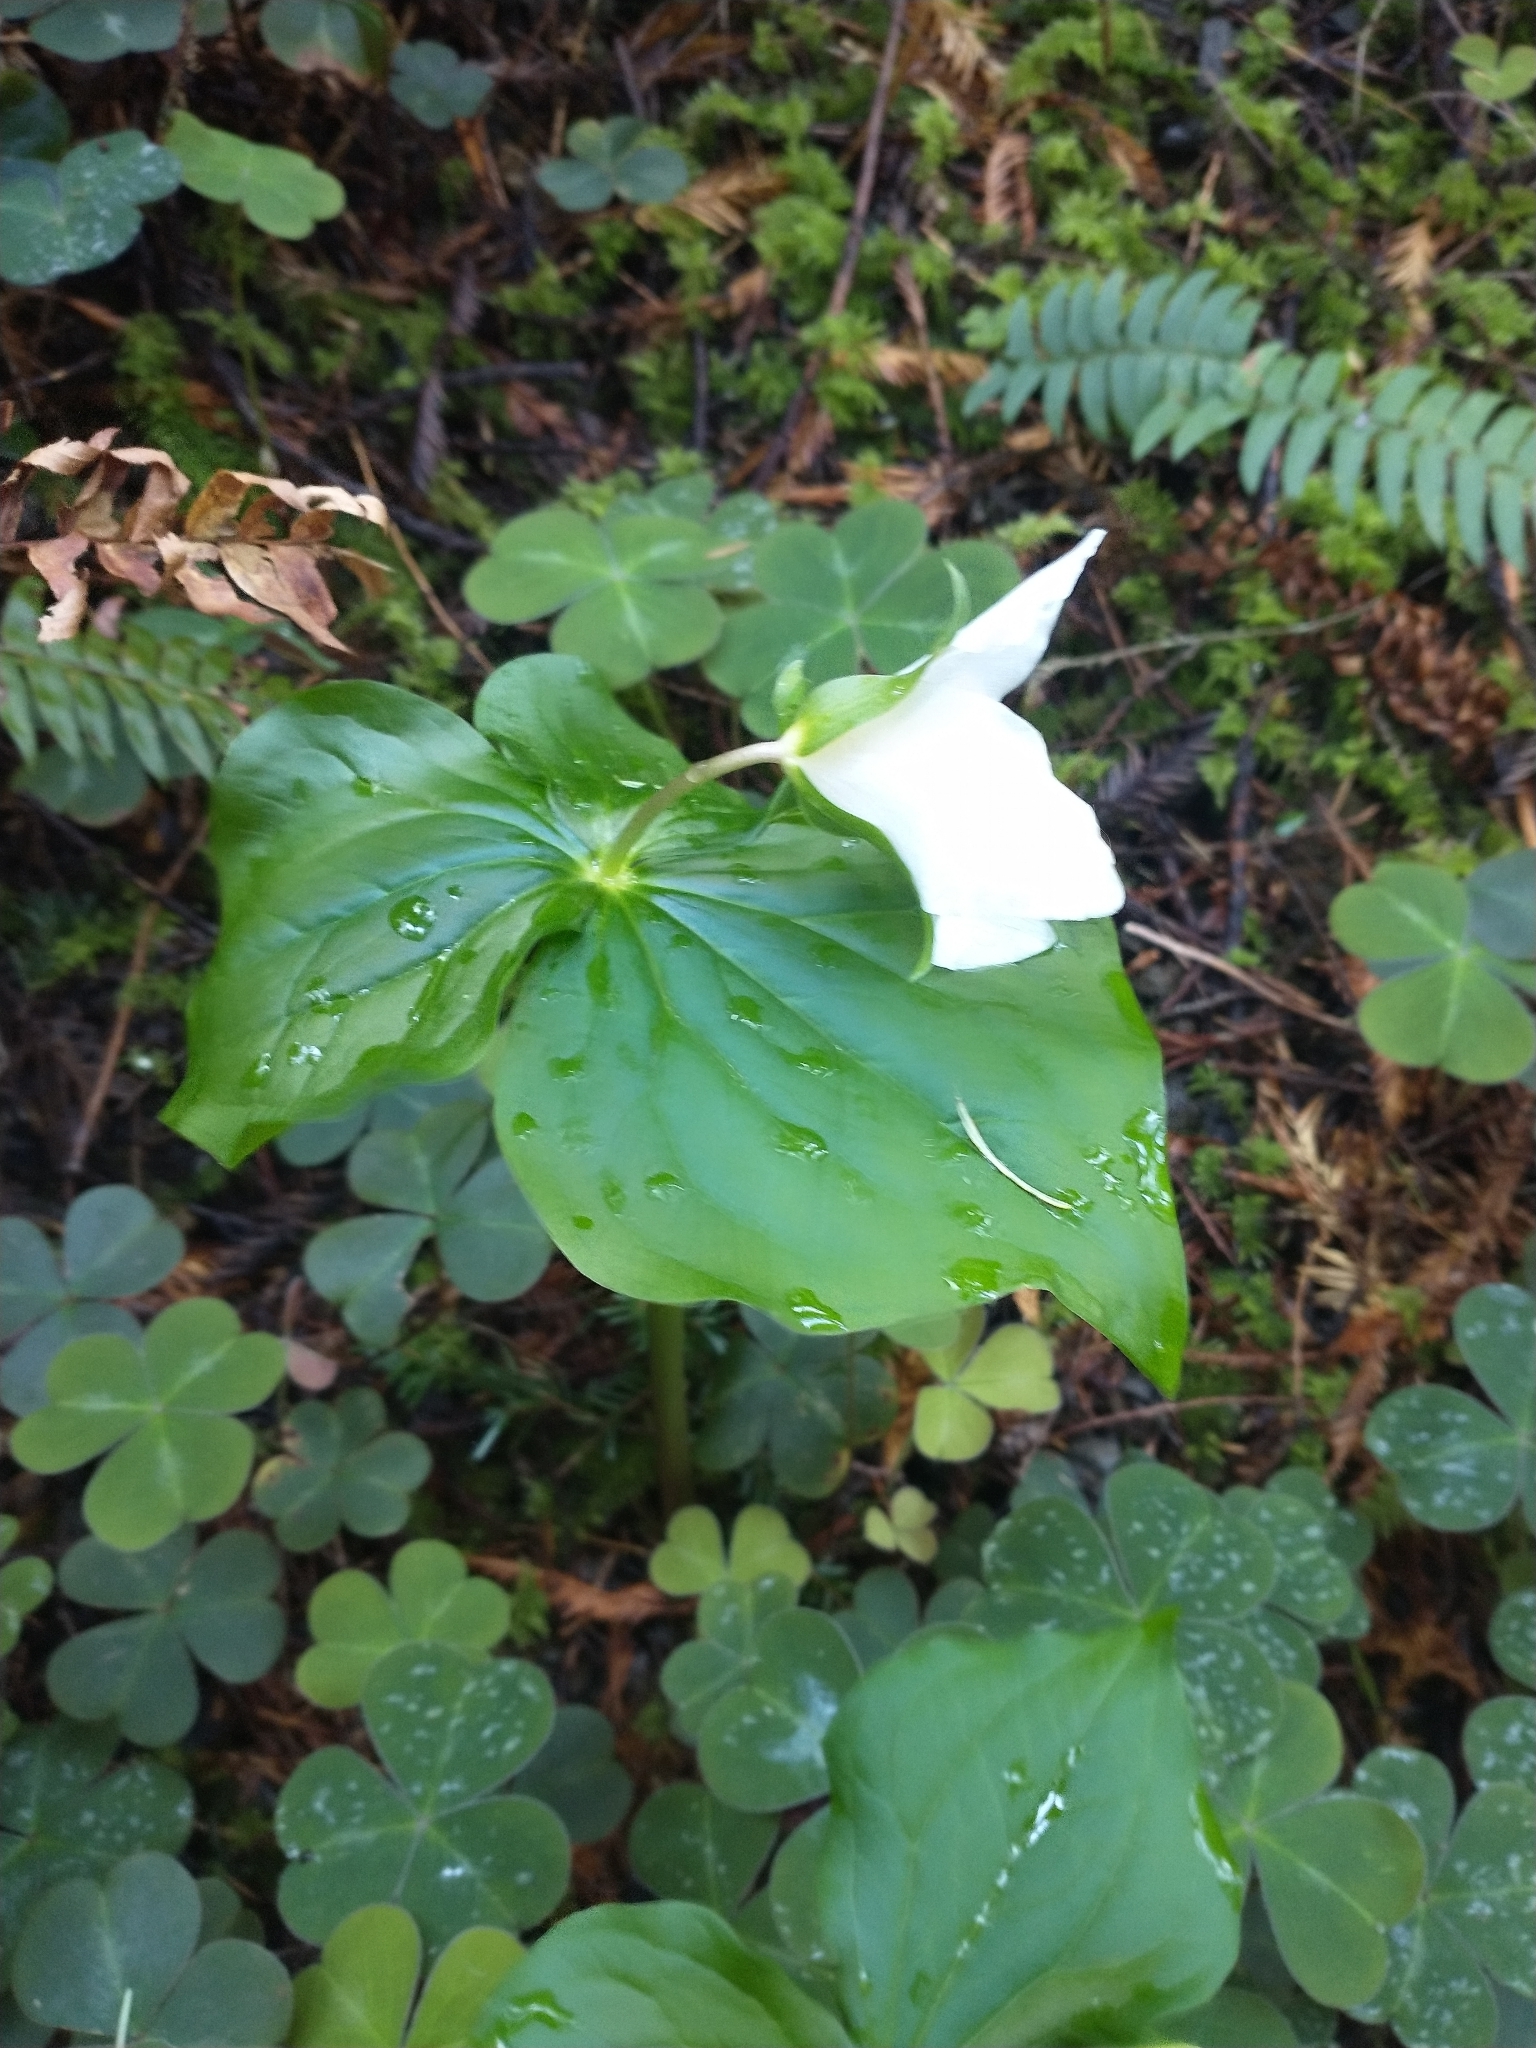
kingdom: Plantae
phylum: Tracheophyta
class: Liliopsida
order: Liliales
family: Melanthiaceae
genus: Trillium
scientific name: Trillium ovatum
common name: Pacific trillium
